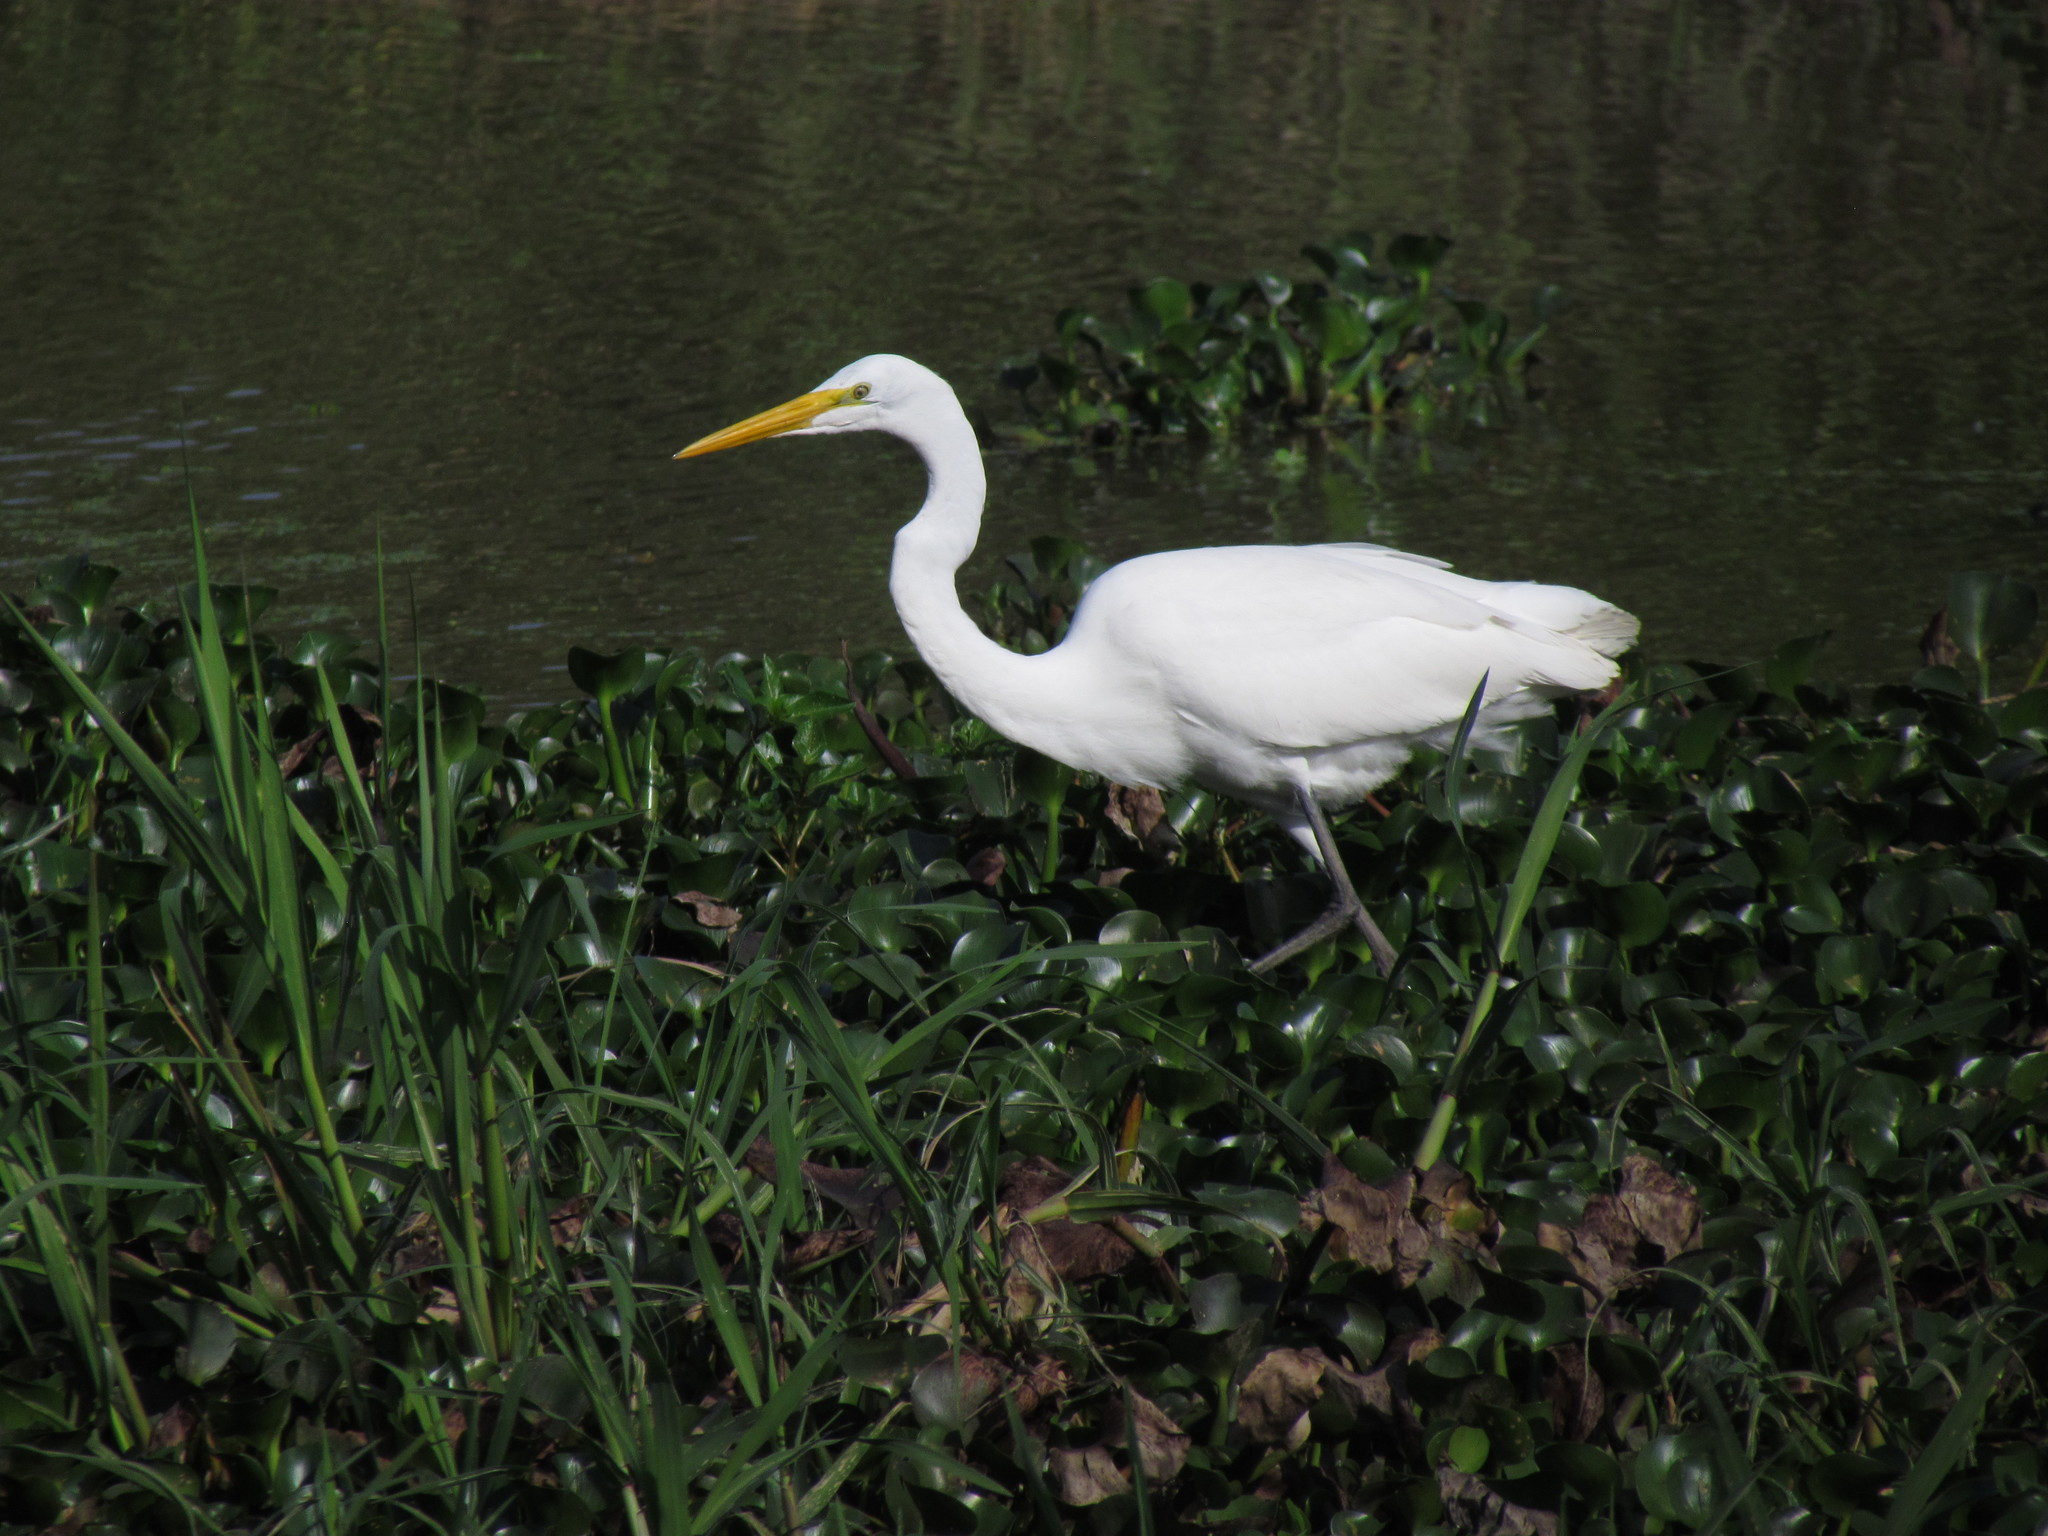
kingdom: Animalia
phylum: Chordata
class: Aves
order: Pelecaniformes
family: Ardeidae
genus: Ardea
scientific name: Ardea alba
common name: Great egret
